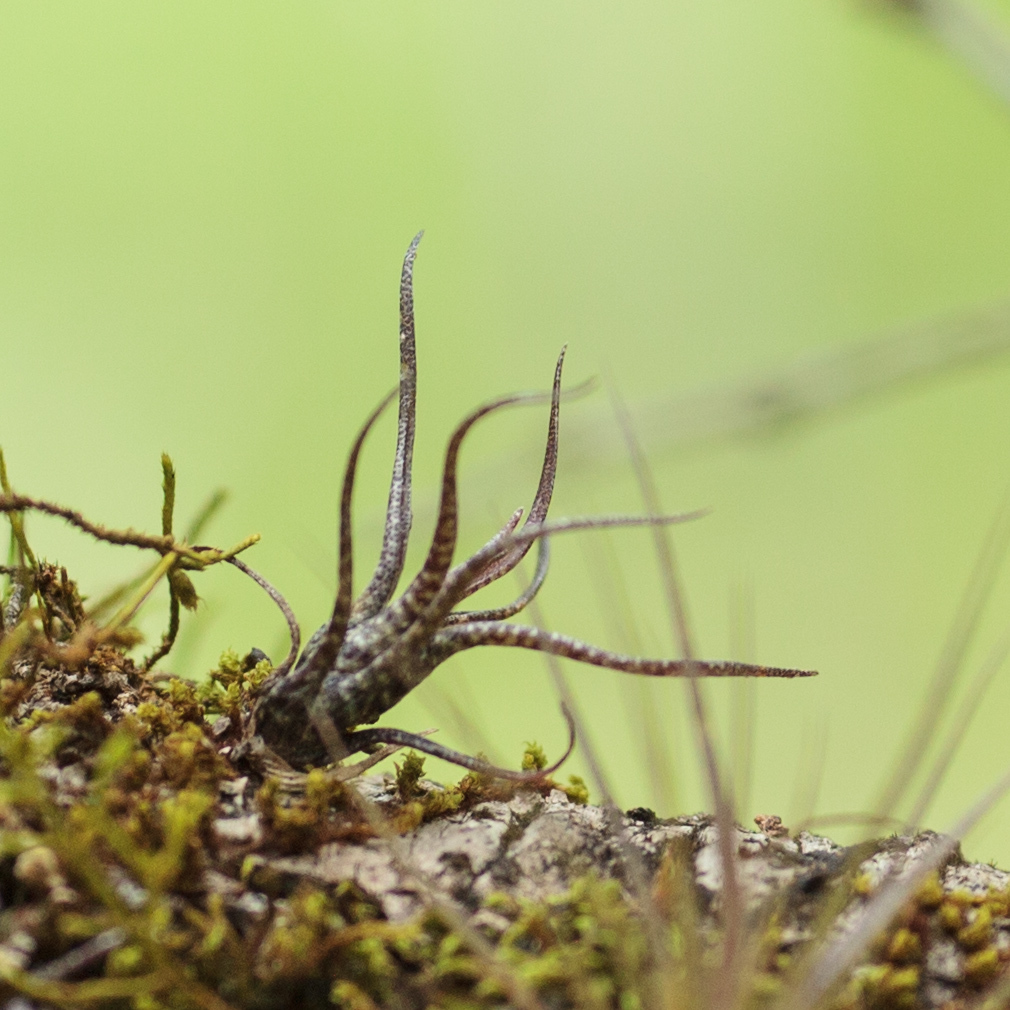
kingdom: Plantae
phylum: Tracheophyta
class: Liliopsida
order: Poales
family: Bromeliaceae
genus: Tillandsia
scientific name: Tillandsia butzii
